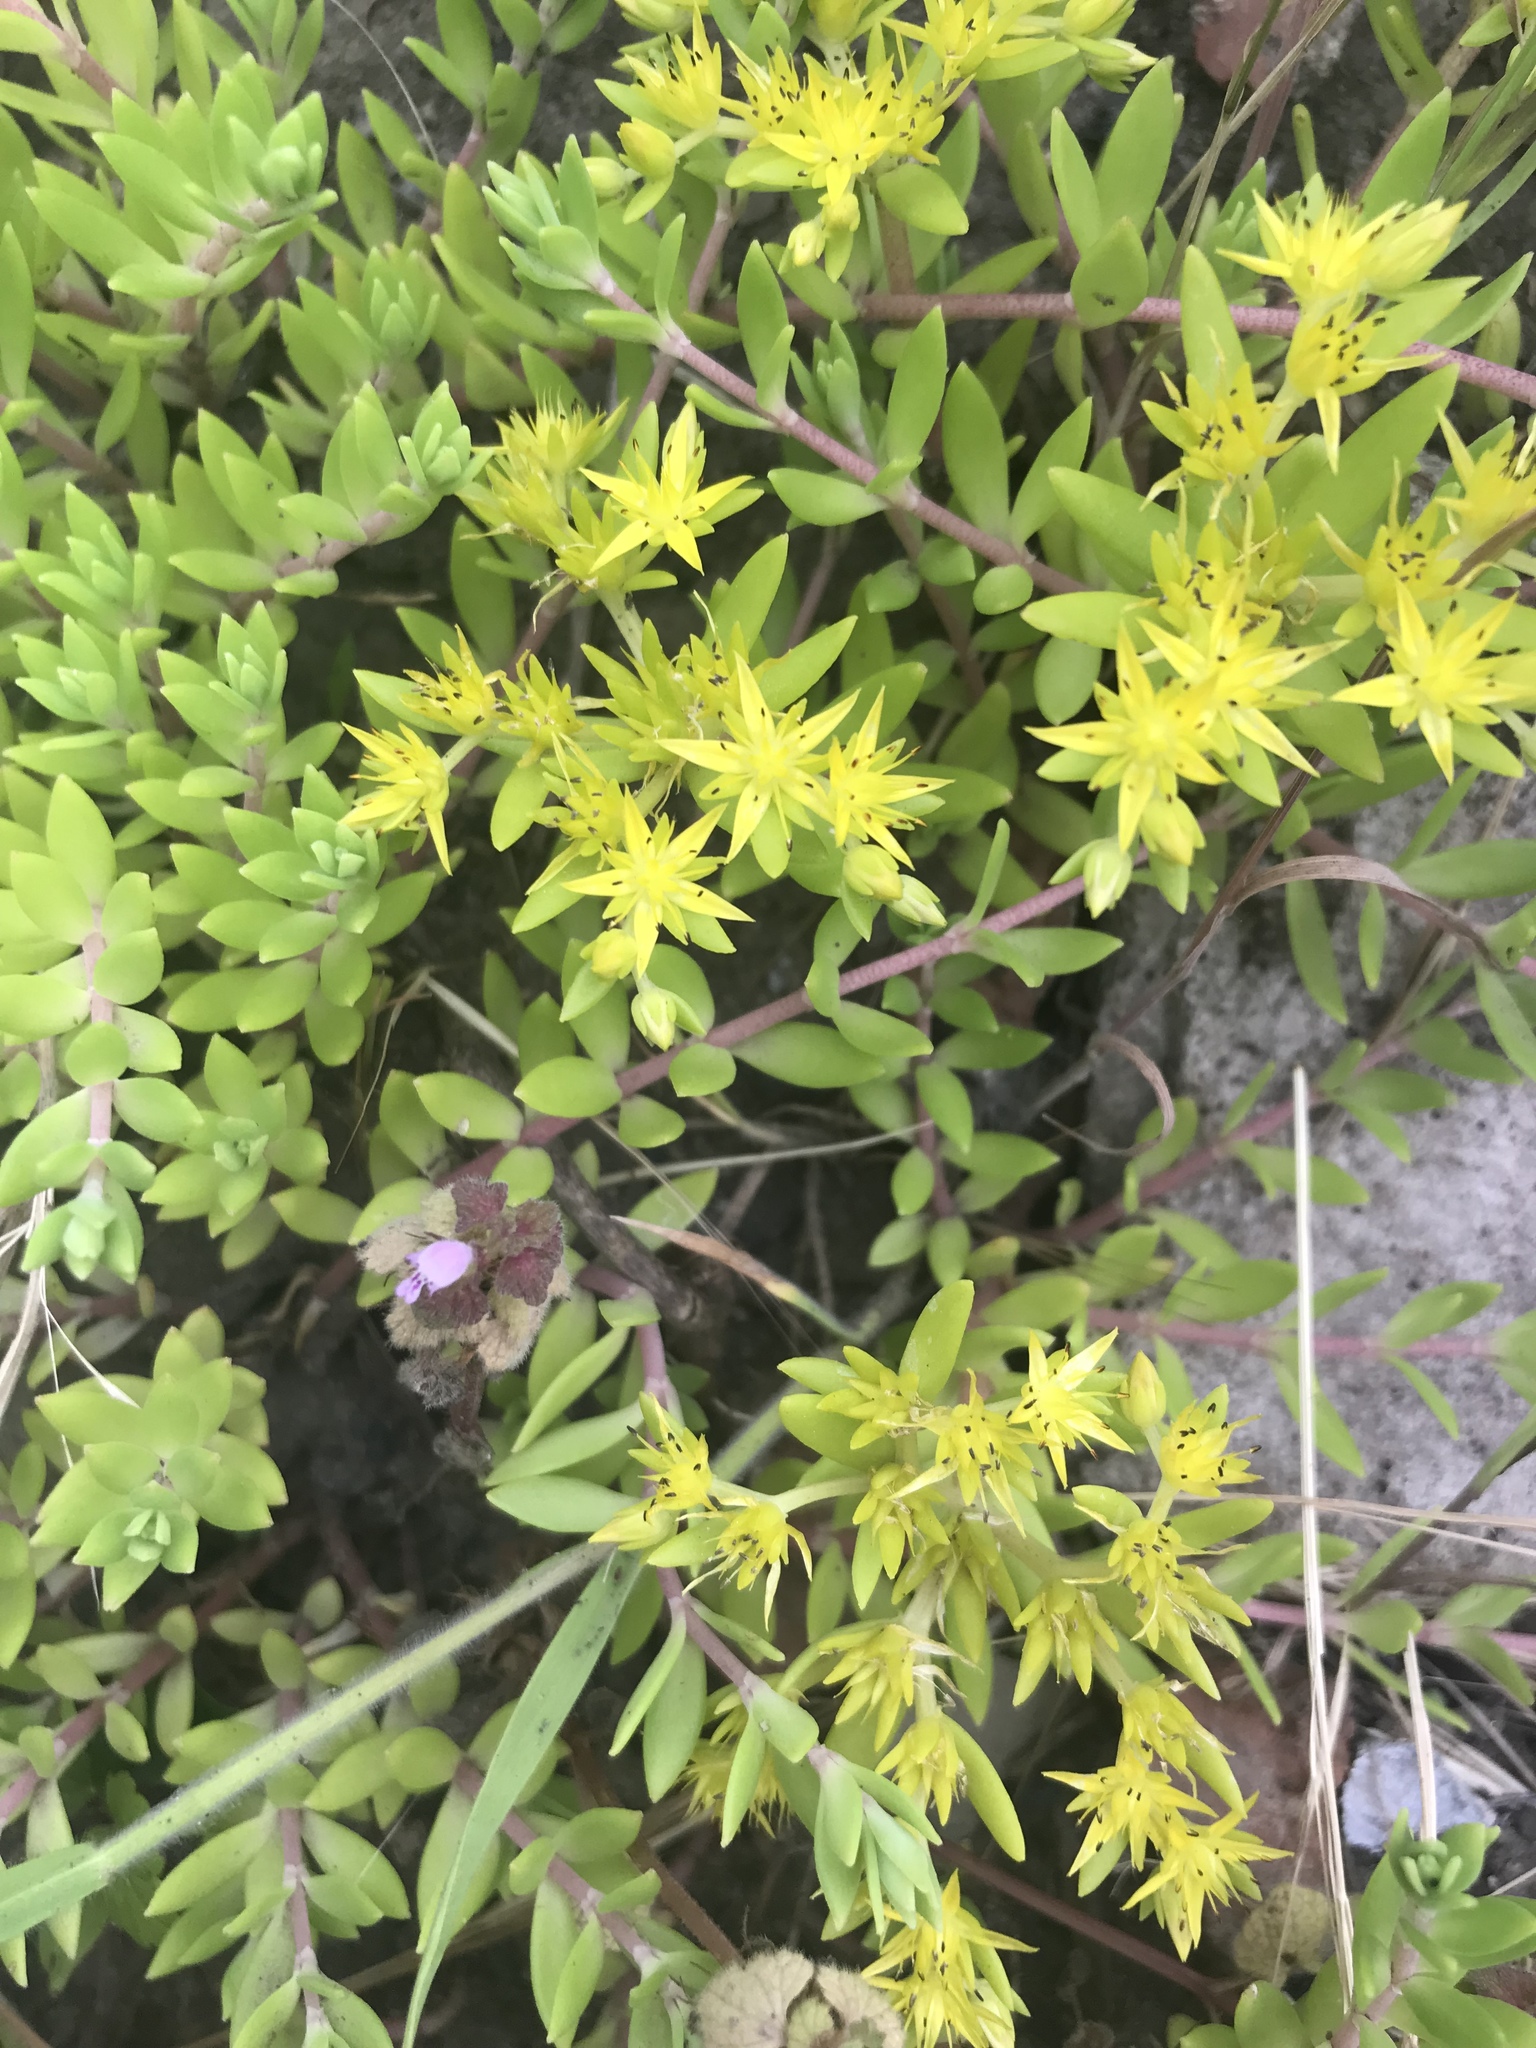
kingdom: Plantae
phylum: Tracheophyta
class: Magnoliopsida
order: Saxifragales
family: Crassulaceae
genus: Sedum
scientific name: Sedum sarmentosum
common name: Stringy stonecrop
